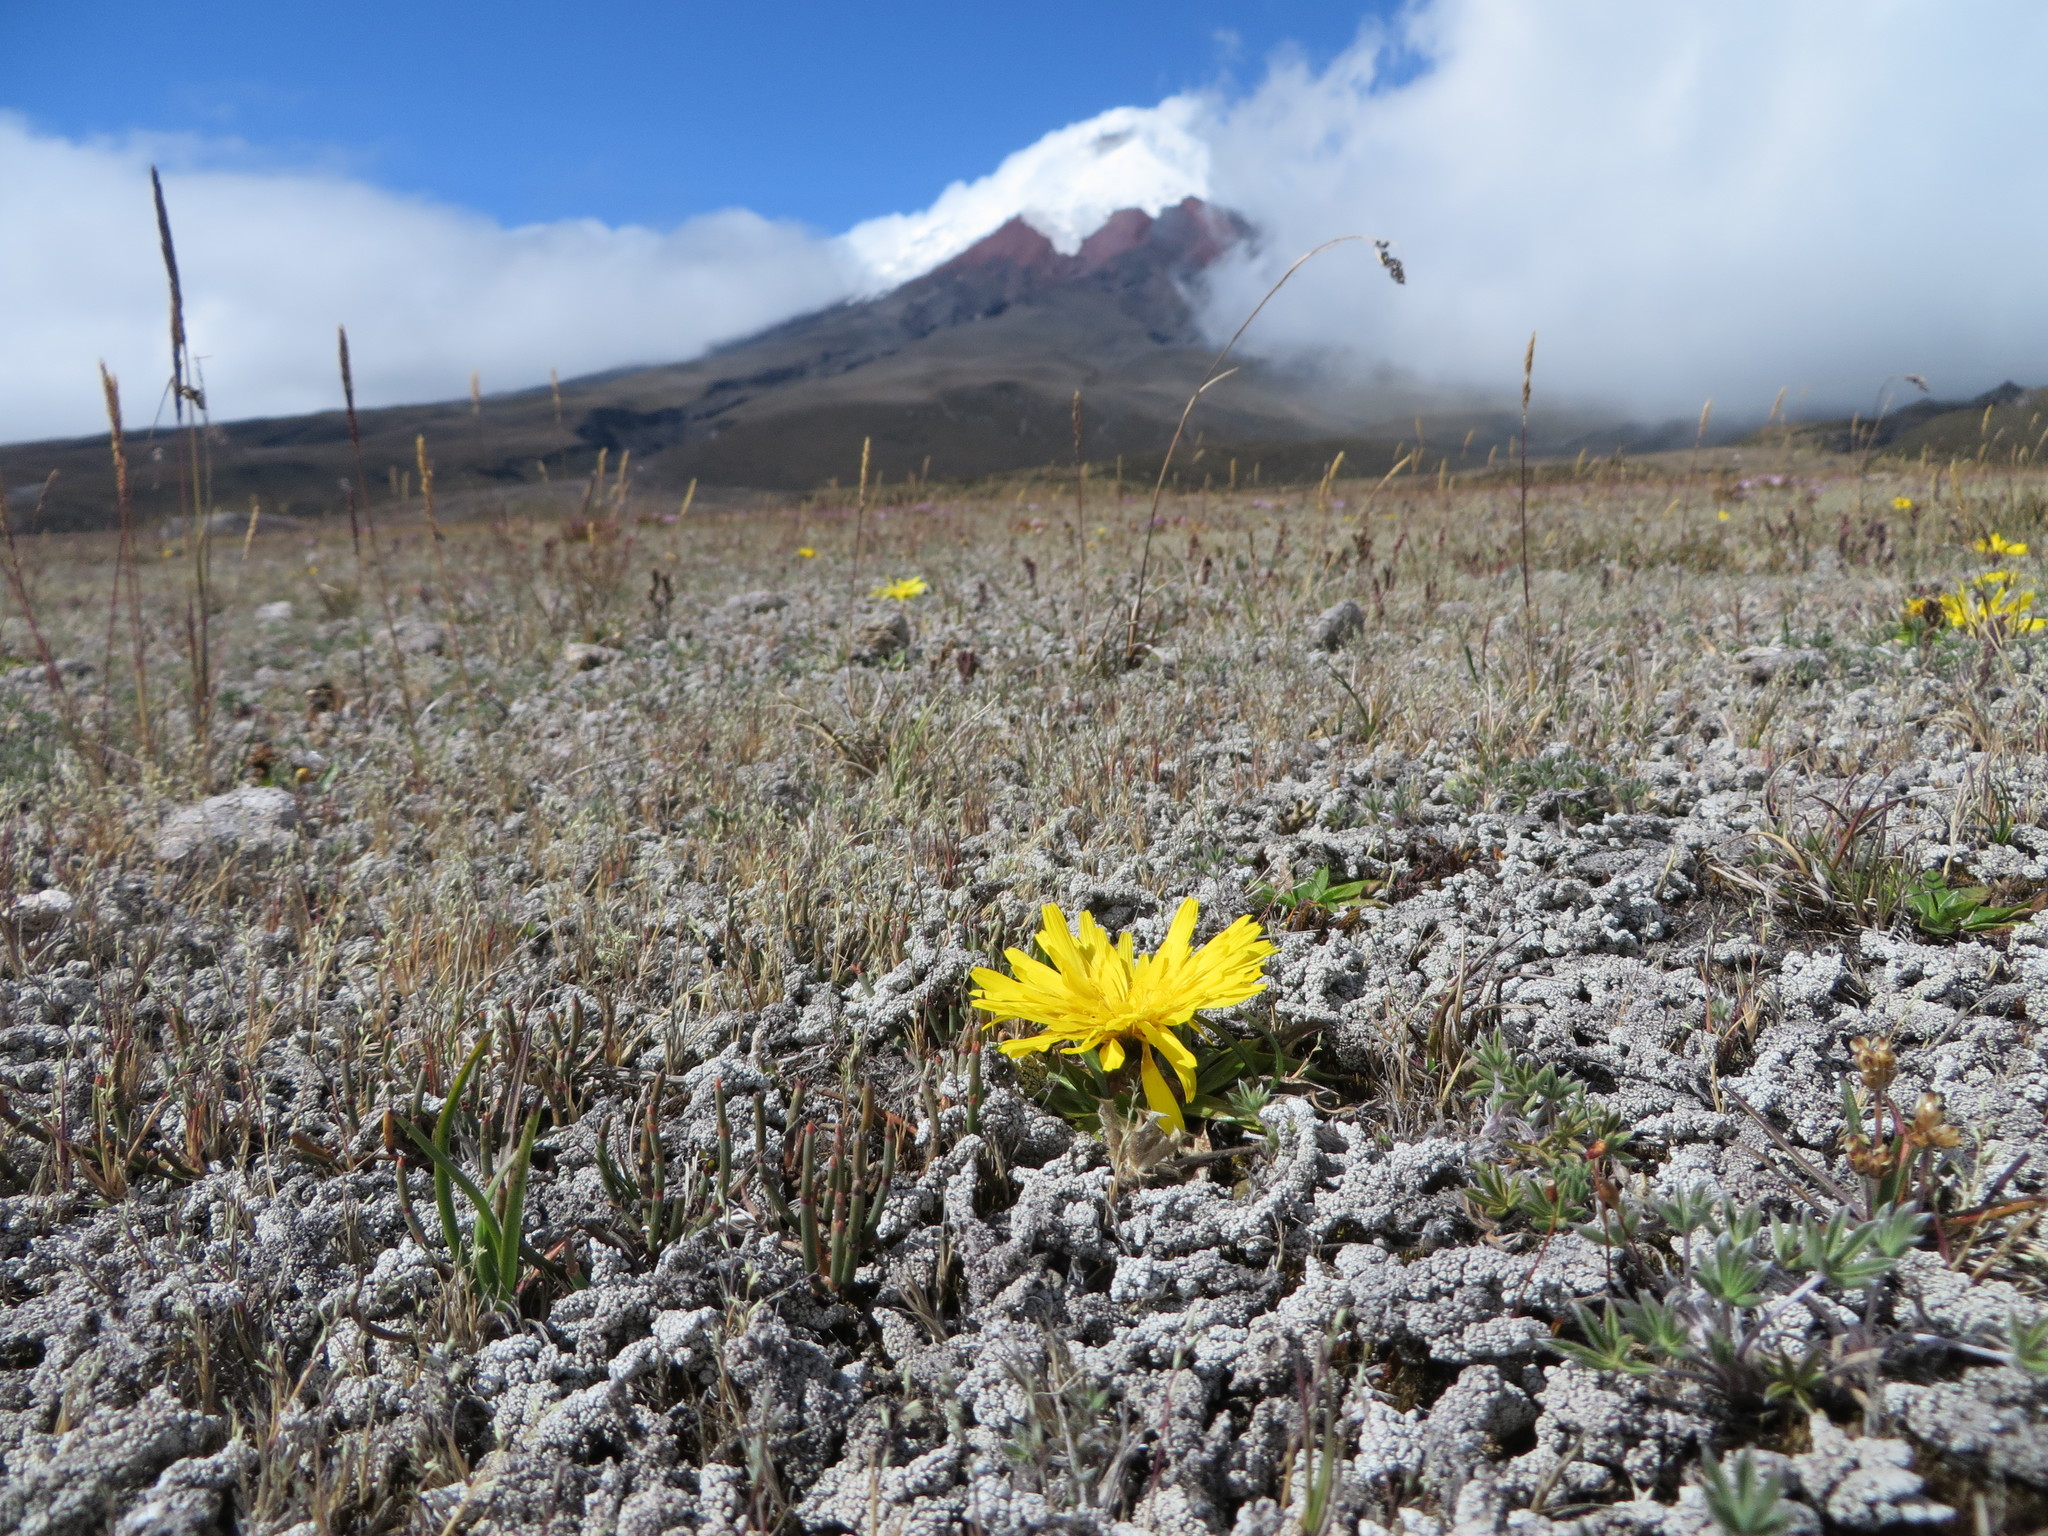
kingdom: Plantae
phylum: Tracheophyta
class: Magnoliopsida
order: Asterales
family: Asteraceae
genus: Hypochaeris
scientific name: Hypochaeris sessiliflora
